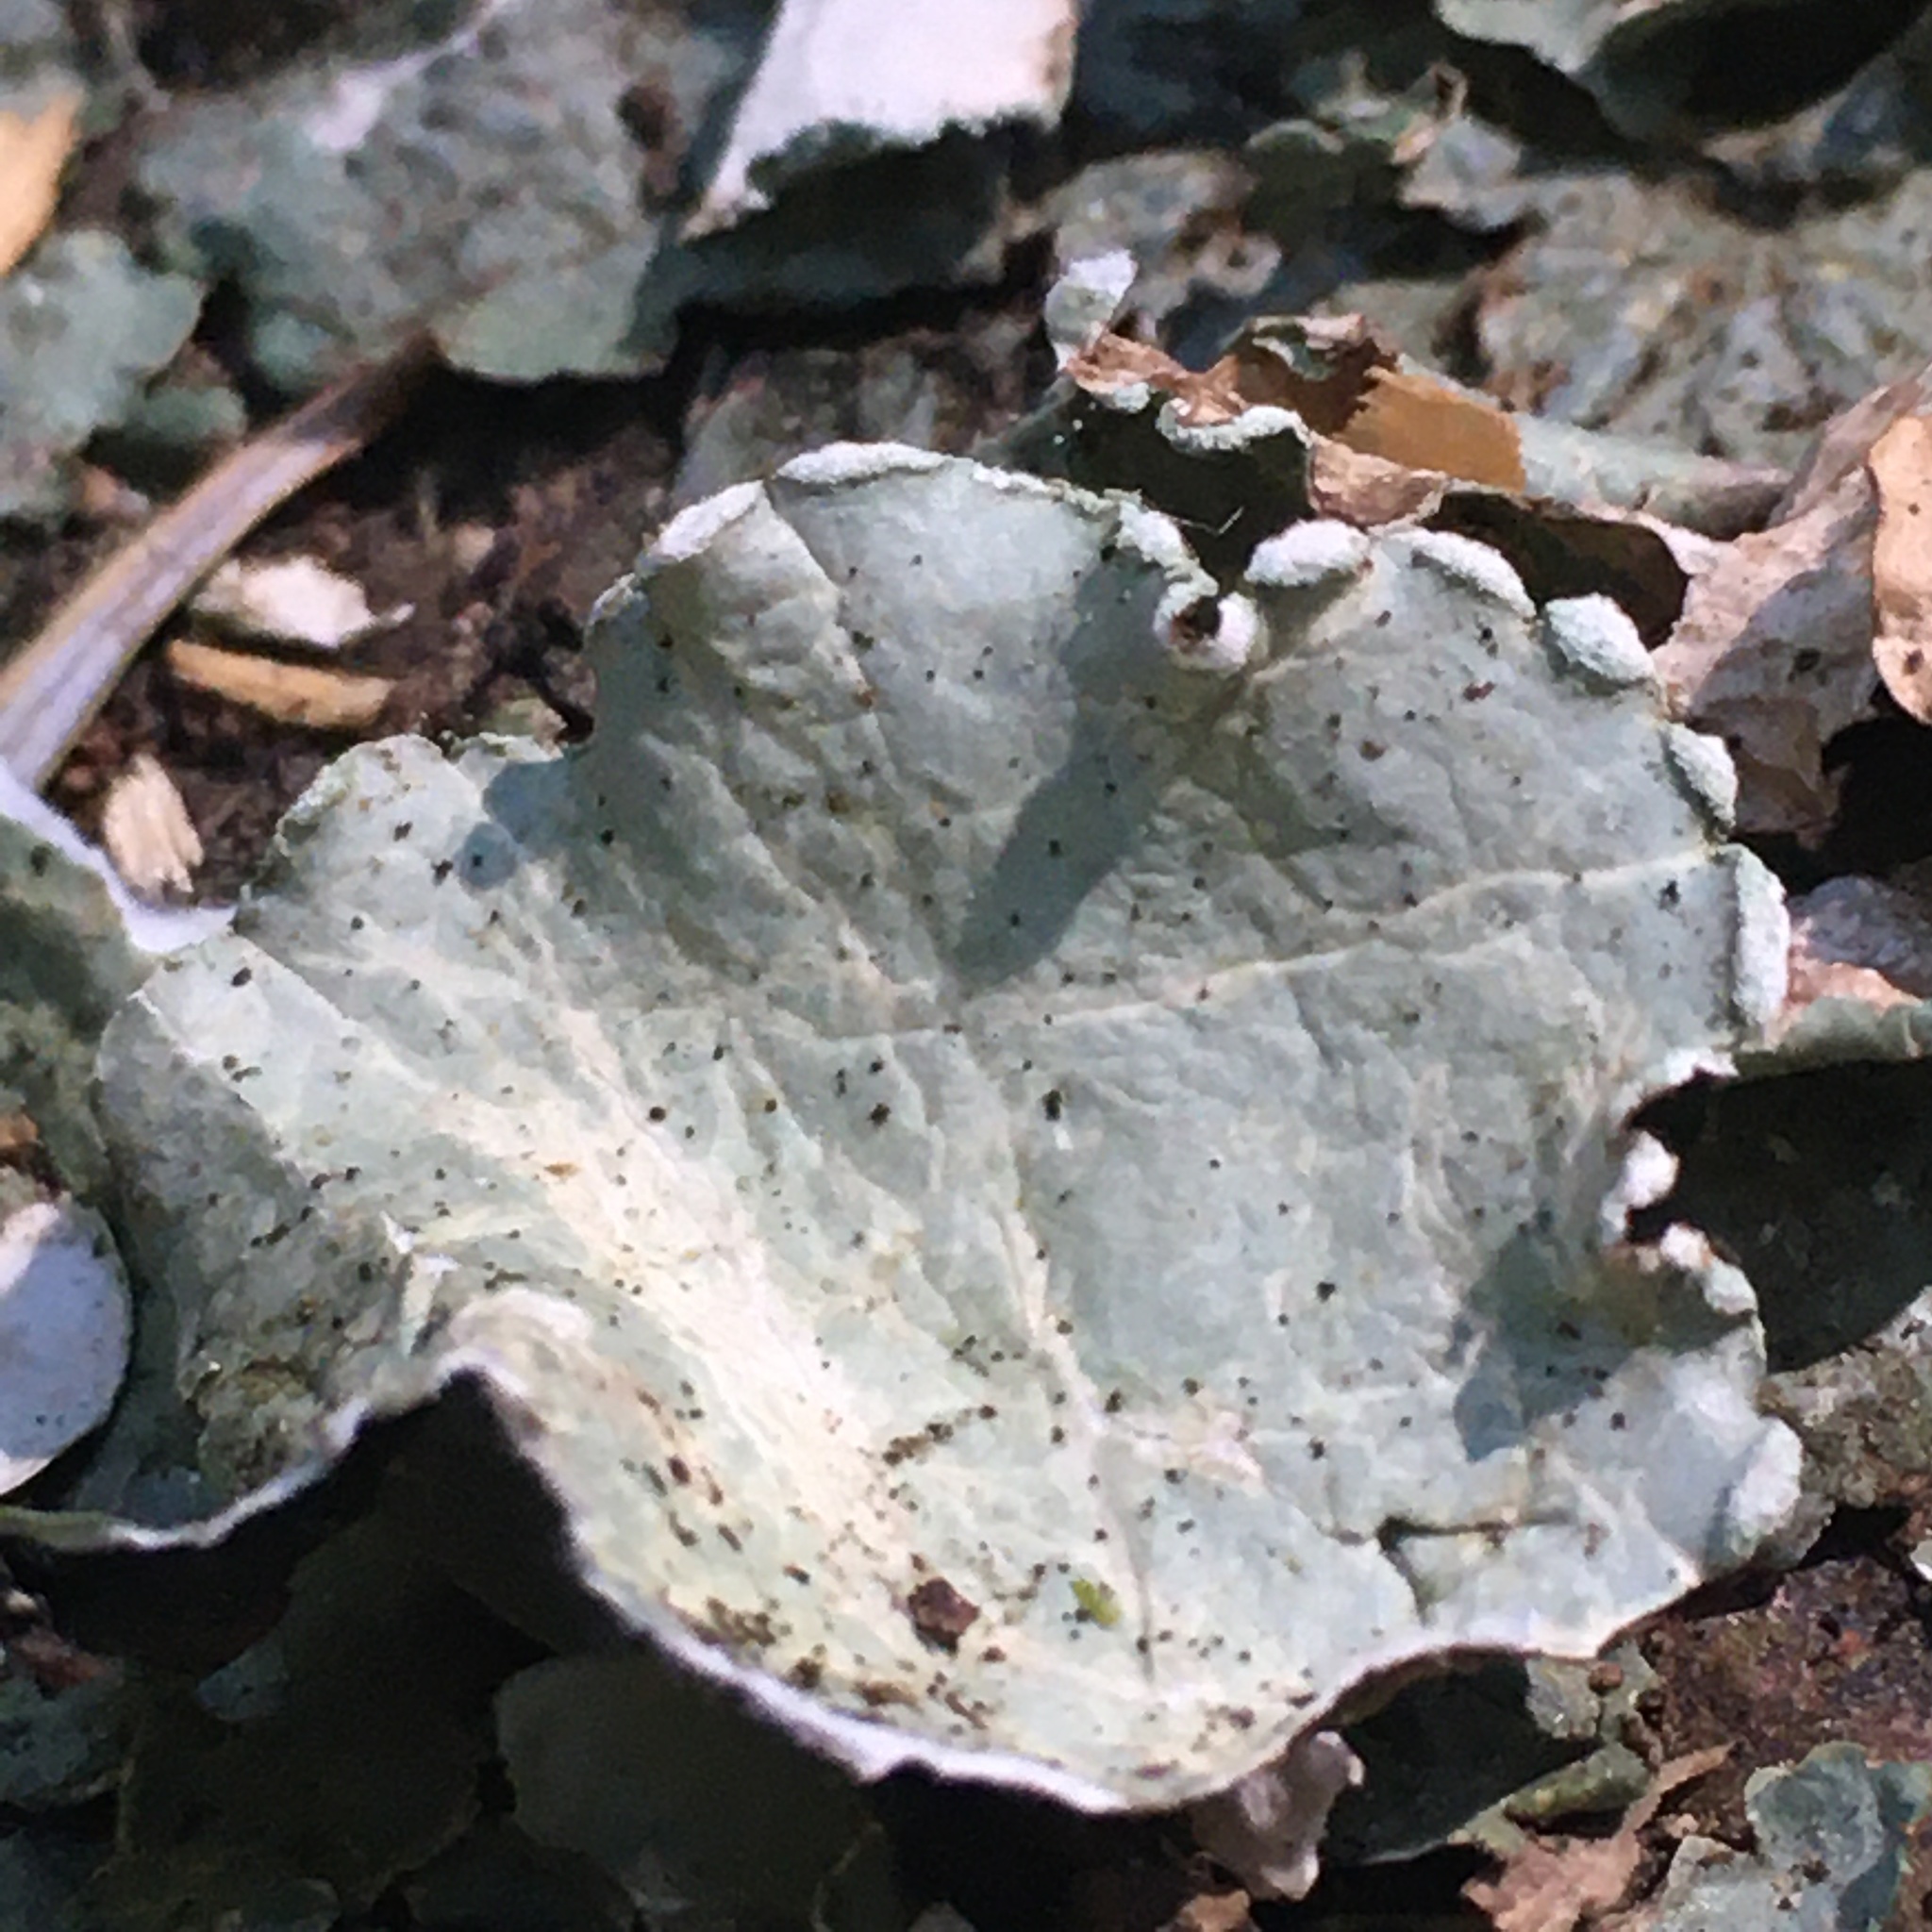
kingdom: Fungi
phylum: Ascomycota
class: Lecanoromycetes
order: Lecanorales
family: Parmeliaceae
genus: Cetrelia
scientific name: Cetrelia cetrarioides
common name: Speckled iceland lichen
